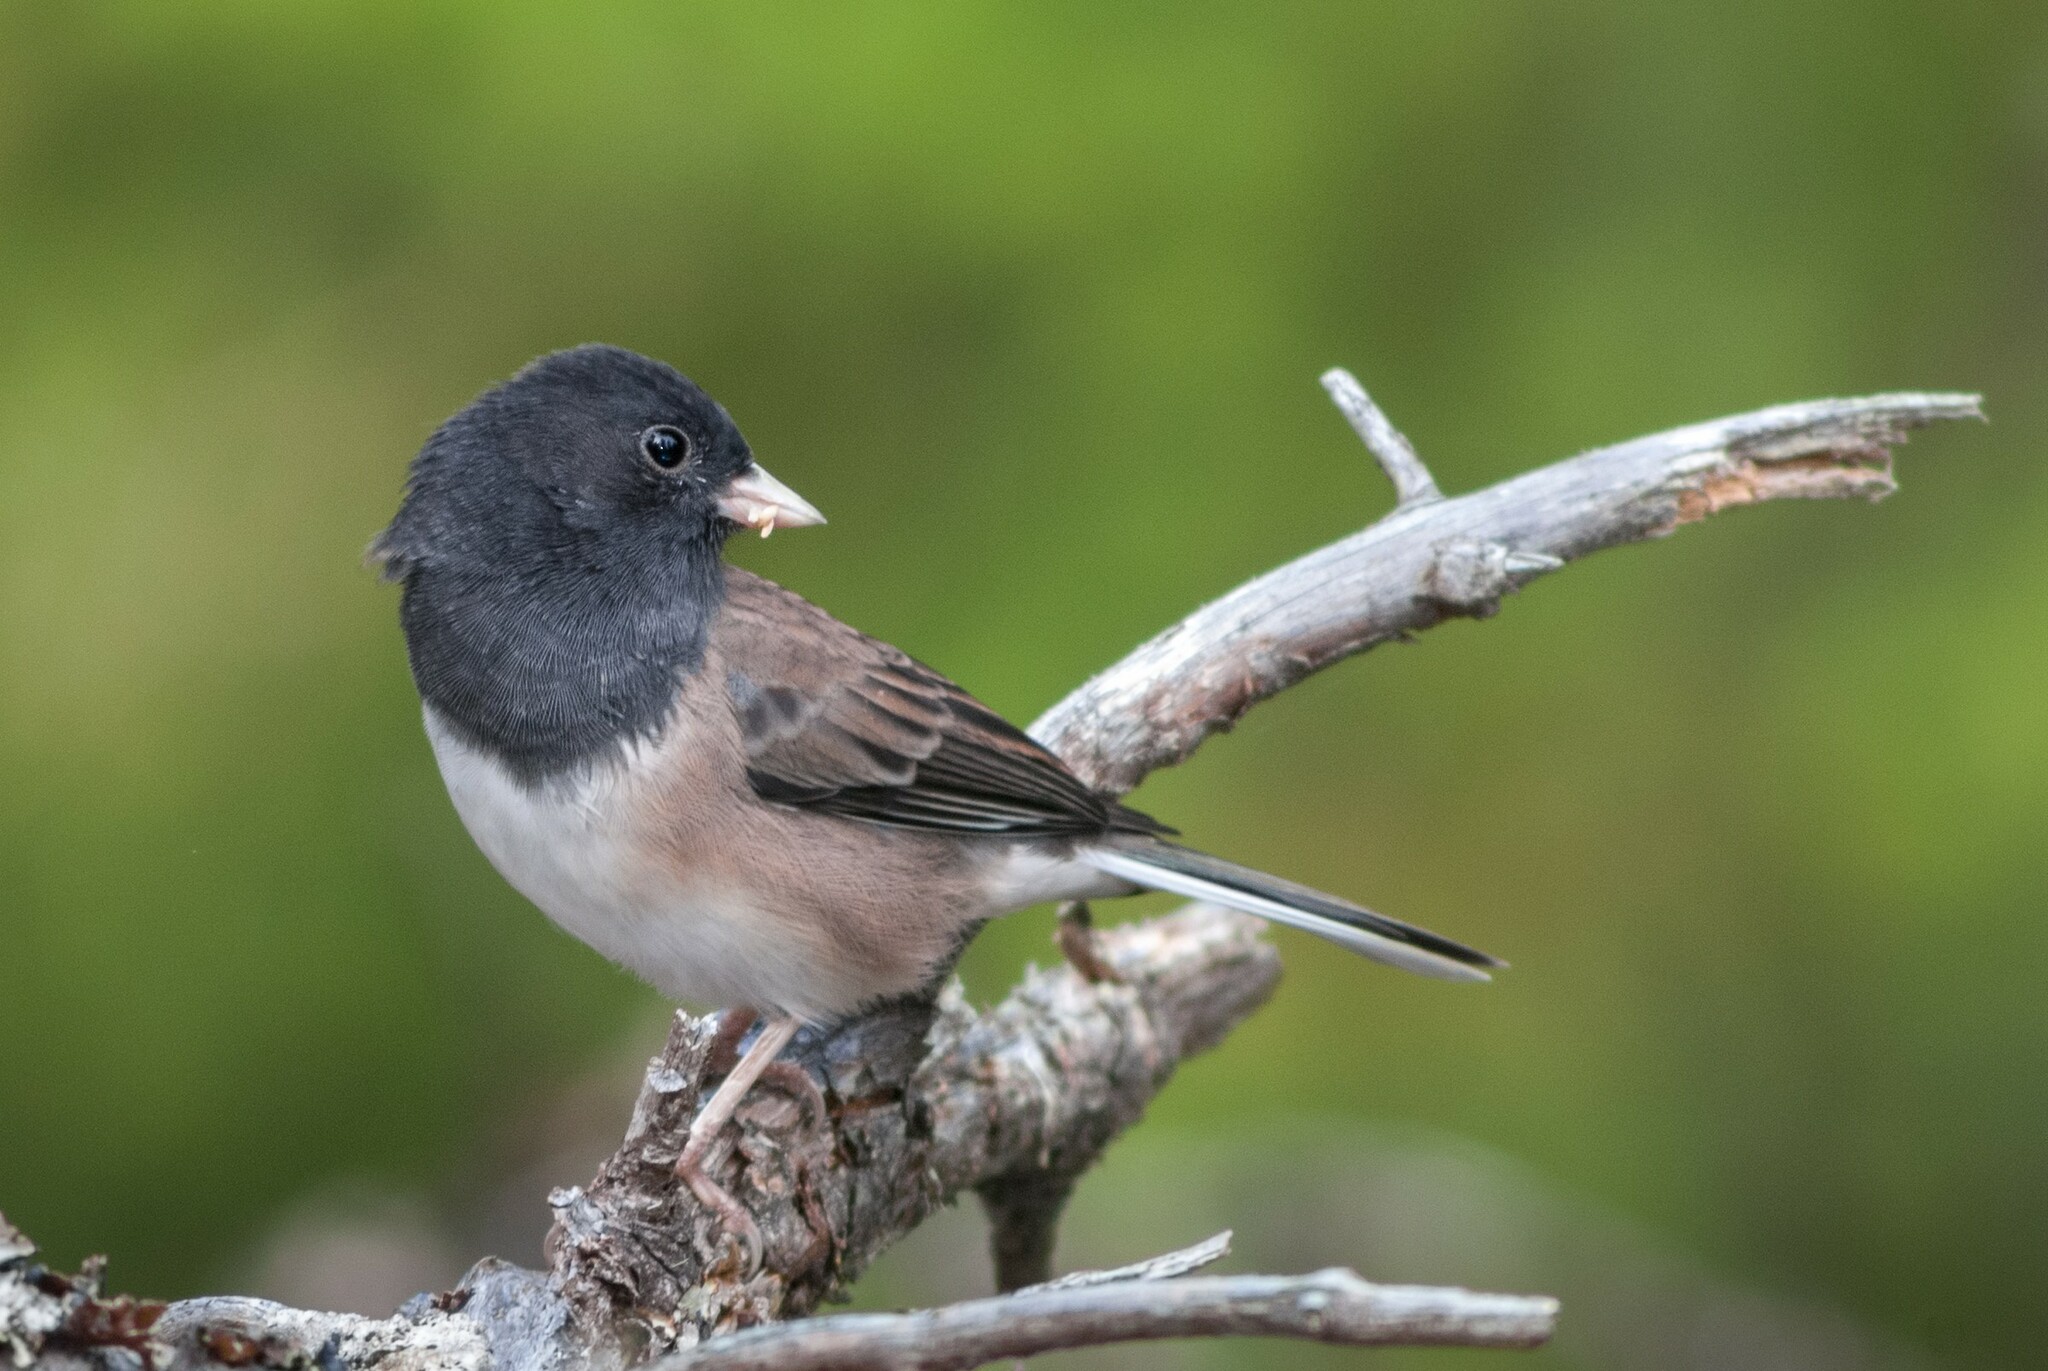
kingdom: Animalia
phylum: Chordata
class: Aves
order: Passeriformes
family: Passerellidae
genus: Junco
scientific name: Junco hyemalis
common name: Dark-eyed junco
